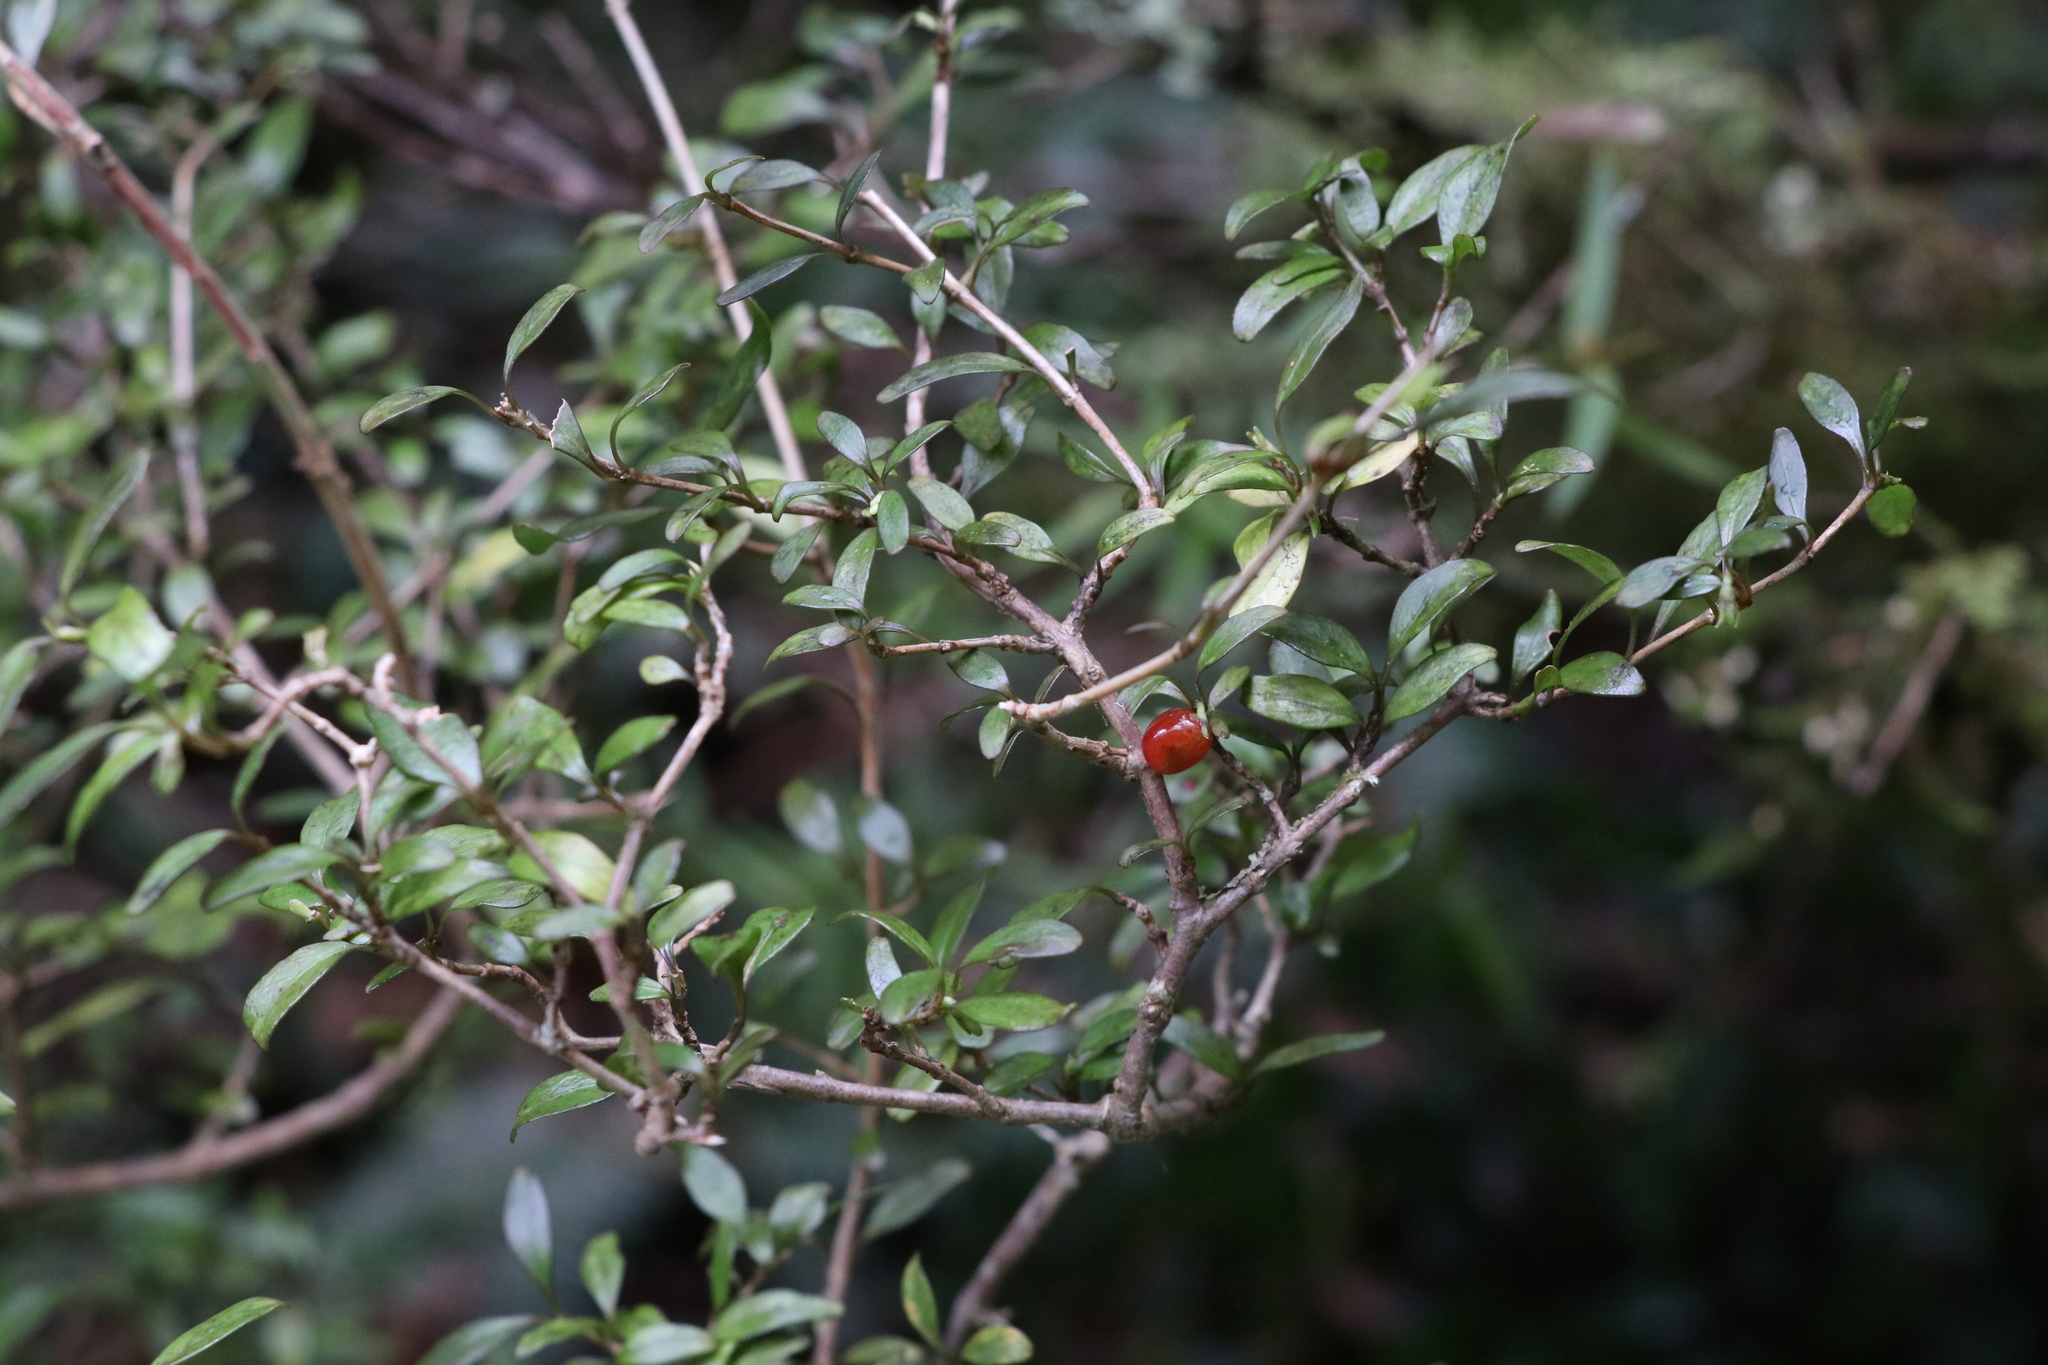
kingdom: Plantae
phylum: Tracheophyta
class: Magnoliopsida
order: Gentianales
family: Rubiaceae
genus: Coprosma
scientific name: Coprosma colensoi
